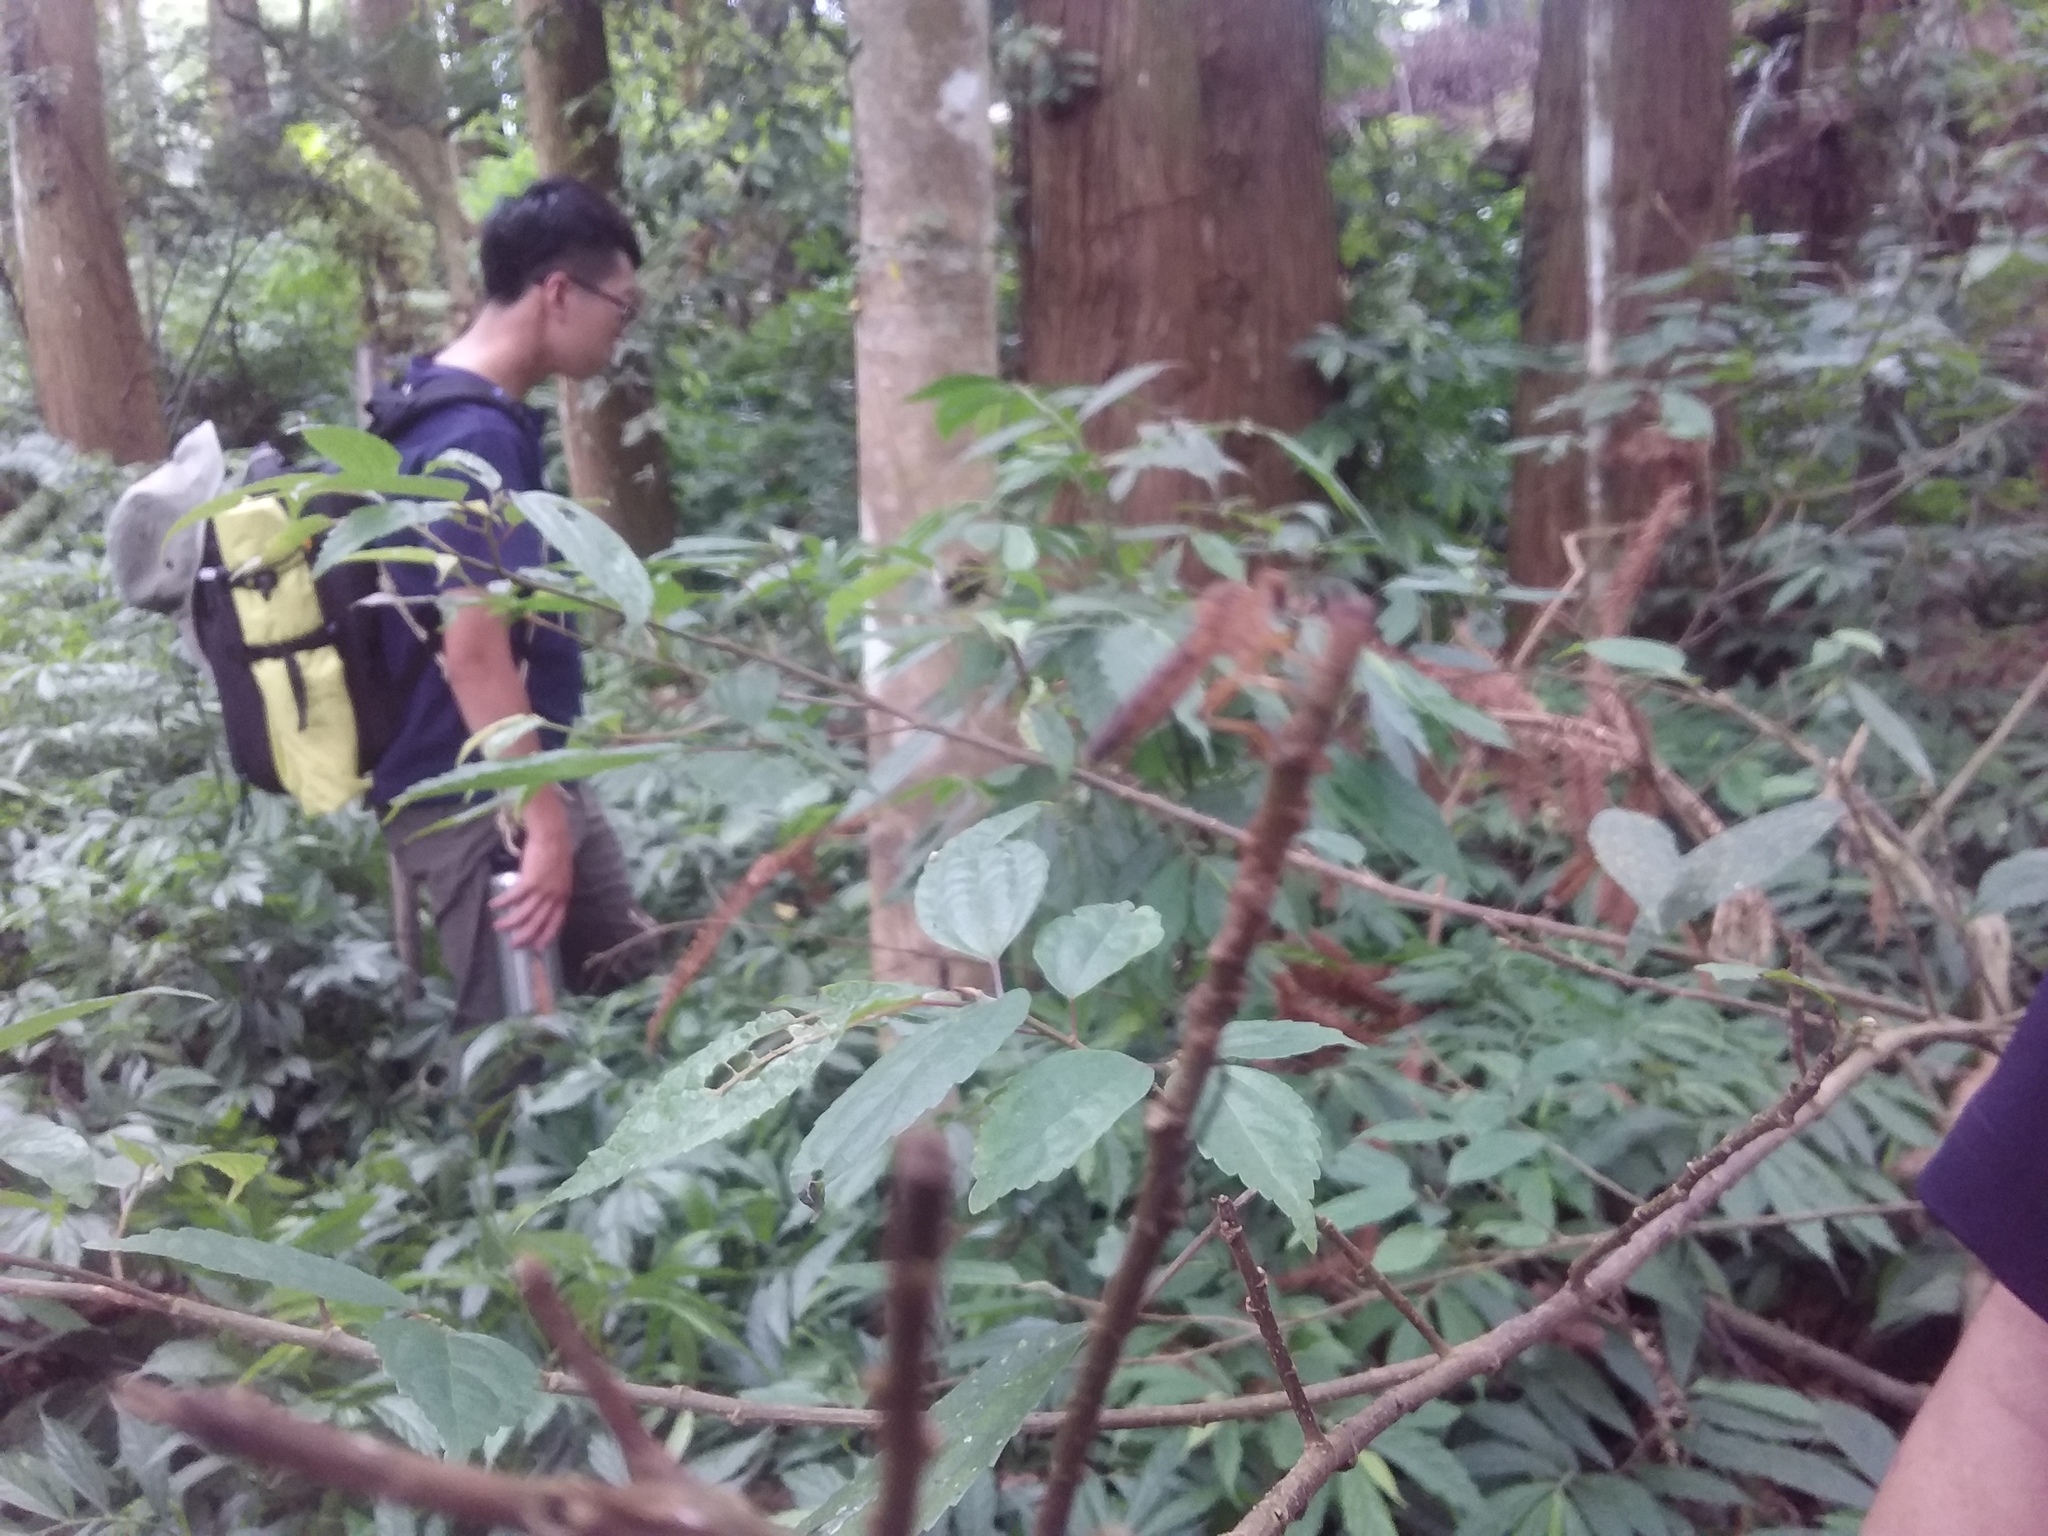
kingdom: Plantae
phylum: Tracheophyta
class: Magnoliopsida
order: Rosales
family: Urticaceae
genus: Oreocnide
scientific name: Oreocnide pedunculata
